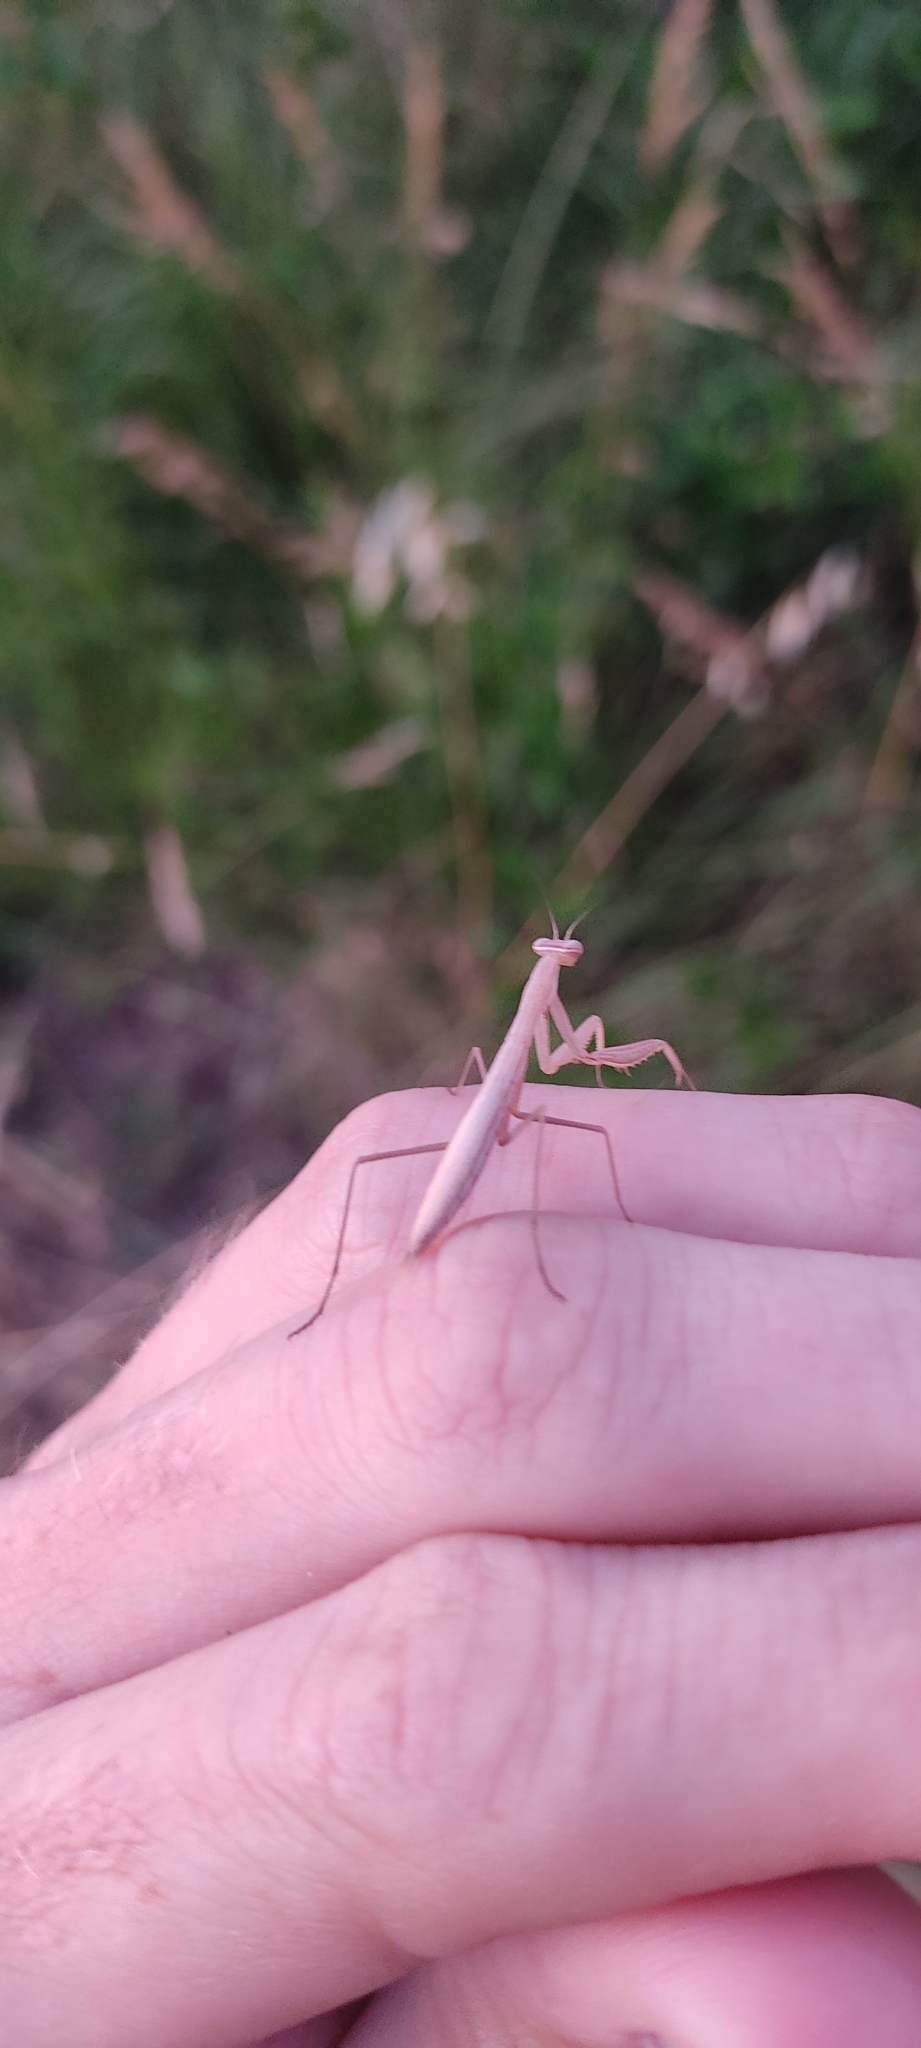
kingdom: Animalia
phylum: Arthropoda
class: Insecta
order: Mantodea
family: Mantidae
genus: Mantis
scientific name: Mantis religiosa
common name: Praying mantis
